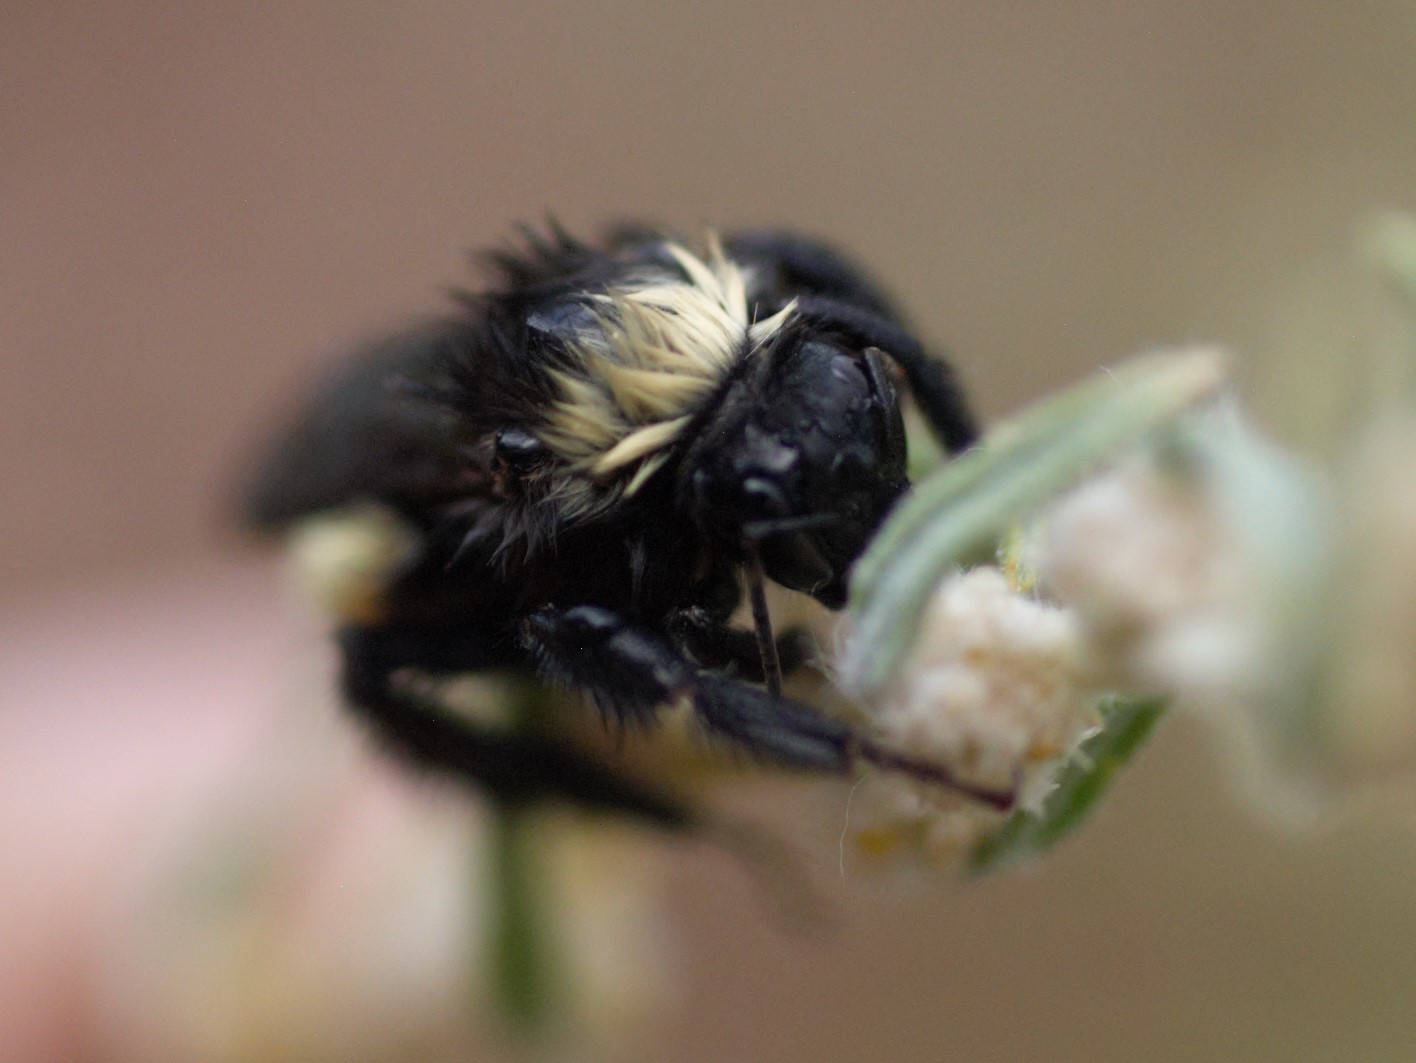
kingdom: Animalia
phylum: Arthropoda
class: Insecta
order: Hymenoptera
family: Apidae
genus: Bombus
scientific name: Bombus pensylvanicus
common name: Bumble bee
